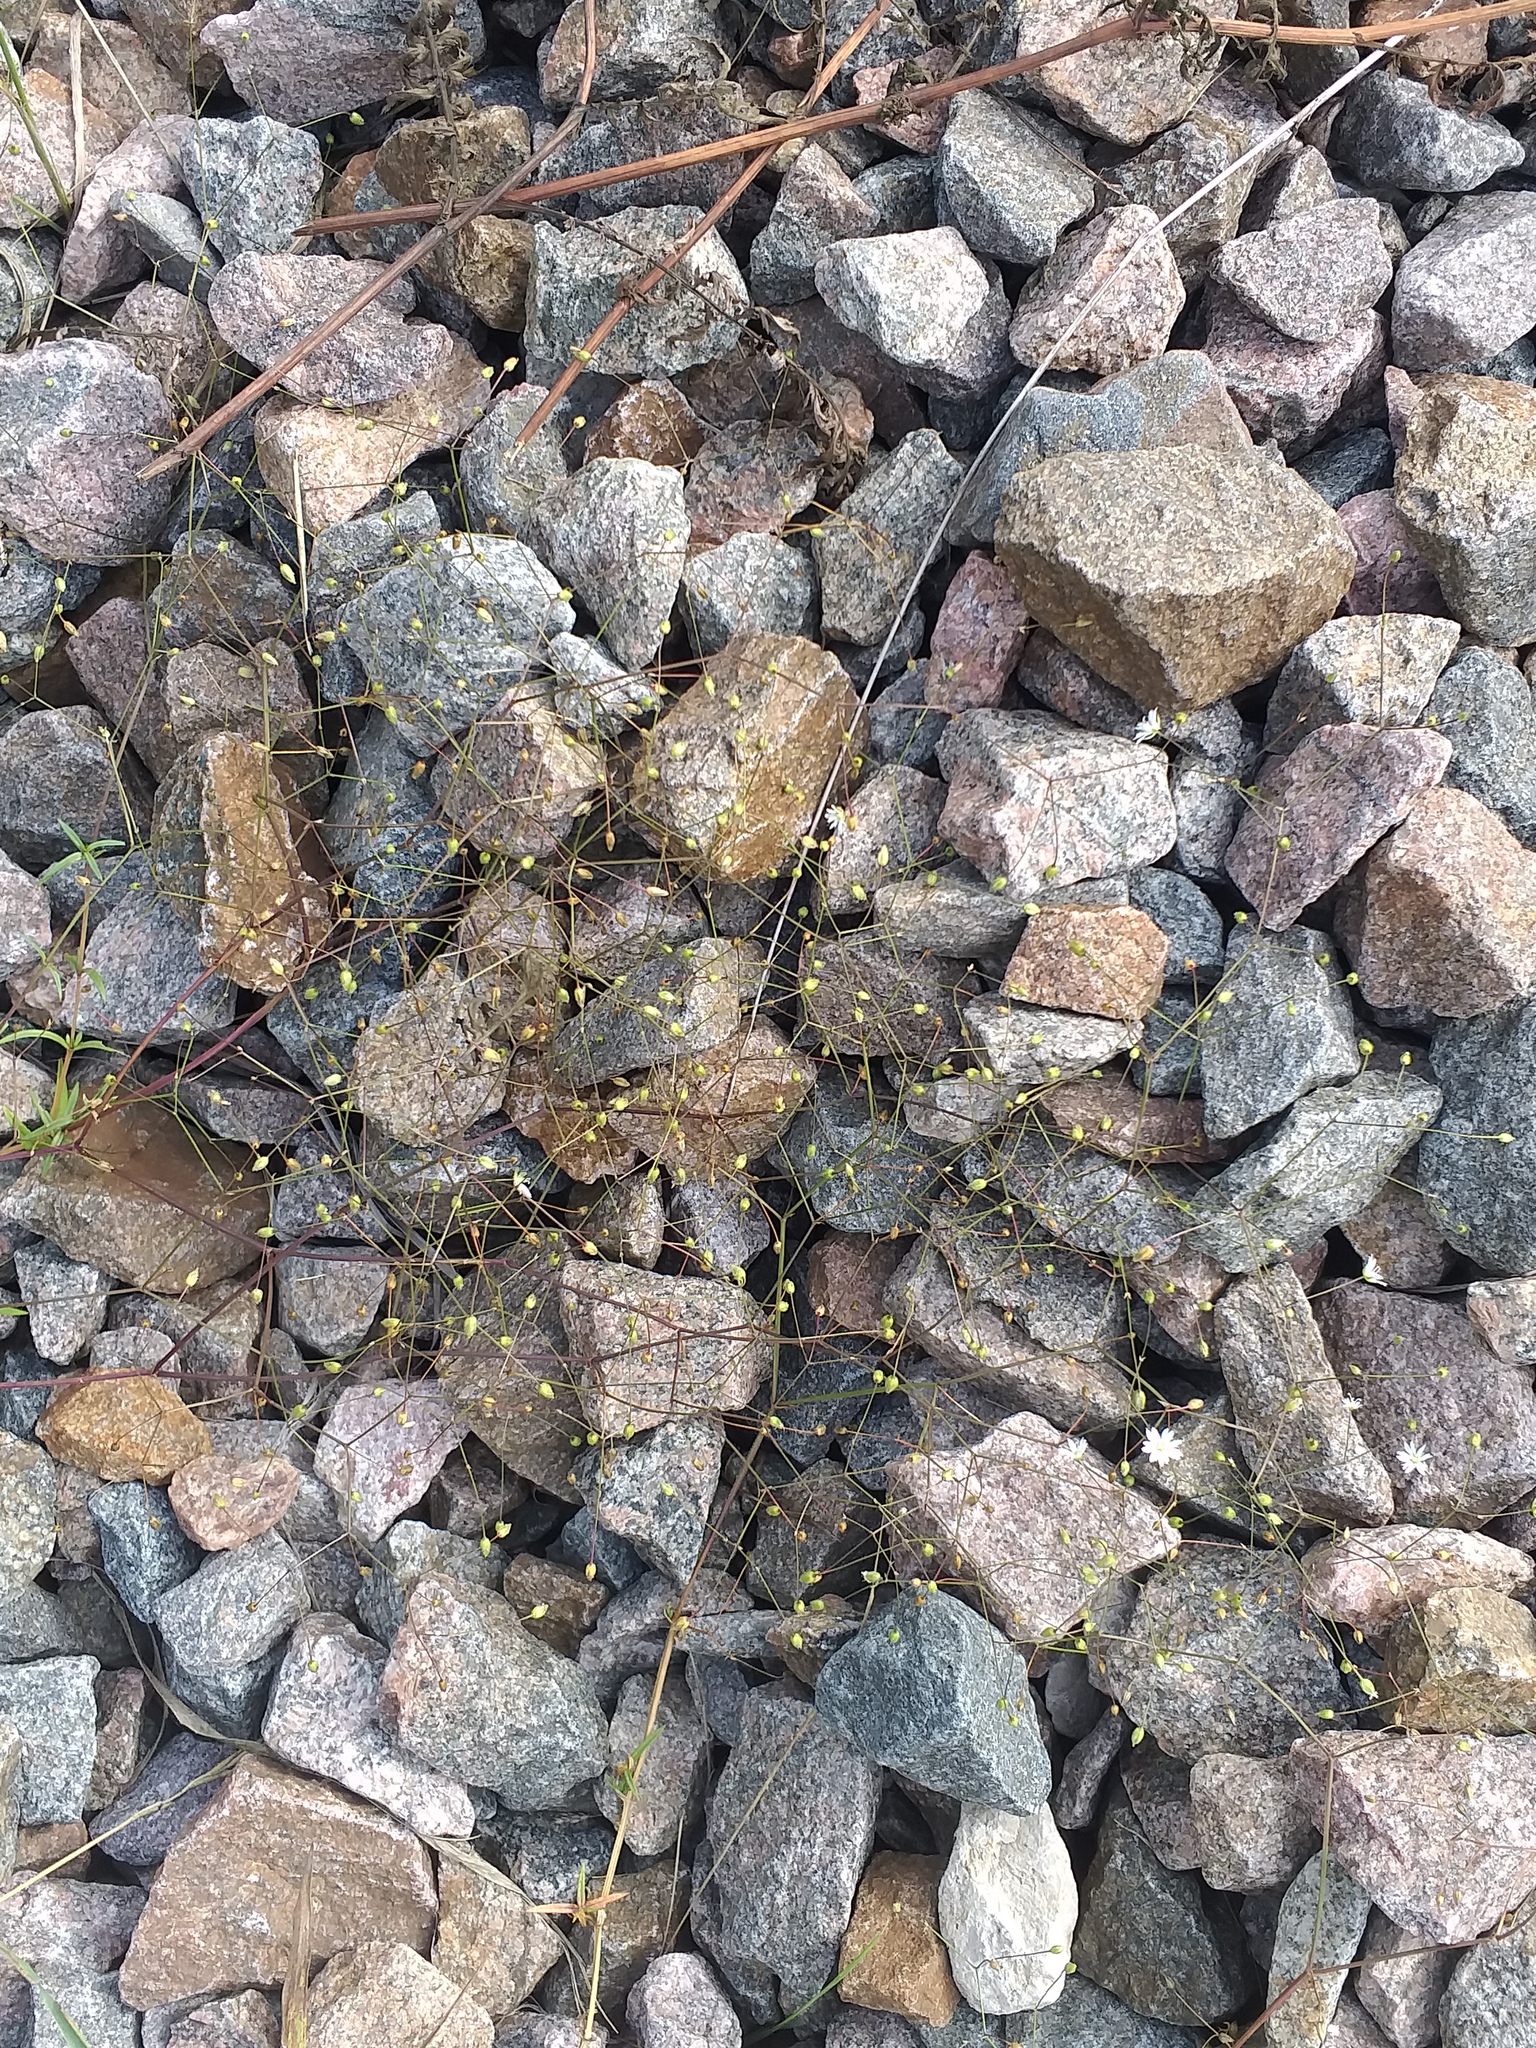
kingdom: Plantae
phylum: Tracheophyta
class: Magnoliopsida
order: Caryophyllales
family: Caryophyllaceae
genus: Stellaria
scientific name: Stellaria graminea
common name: Grass-like starwort
